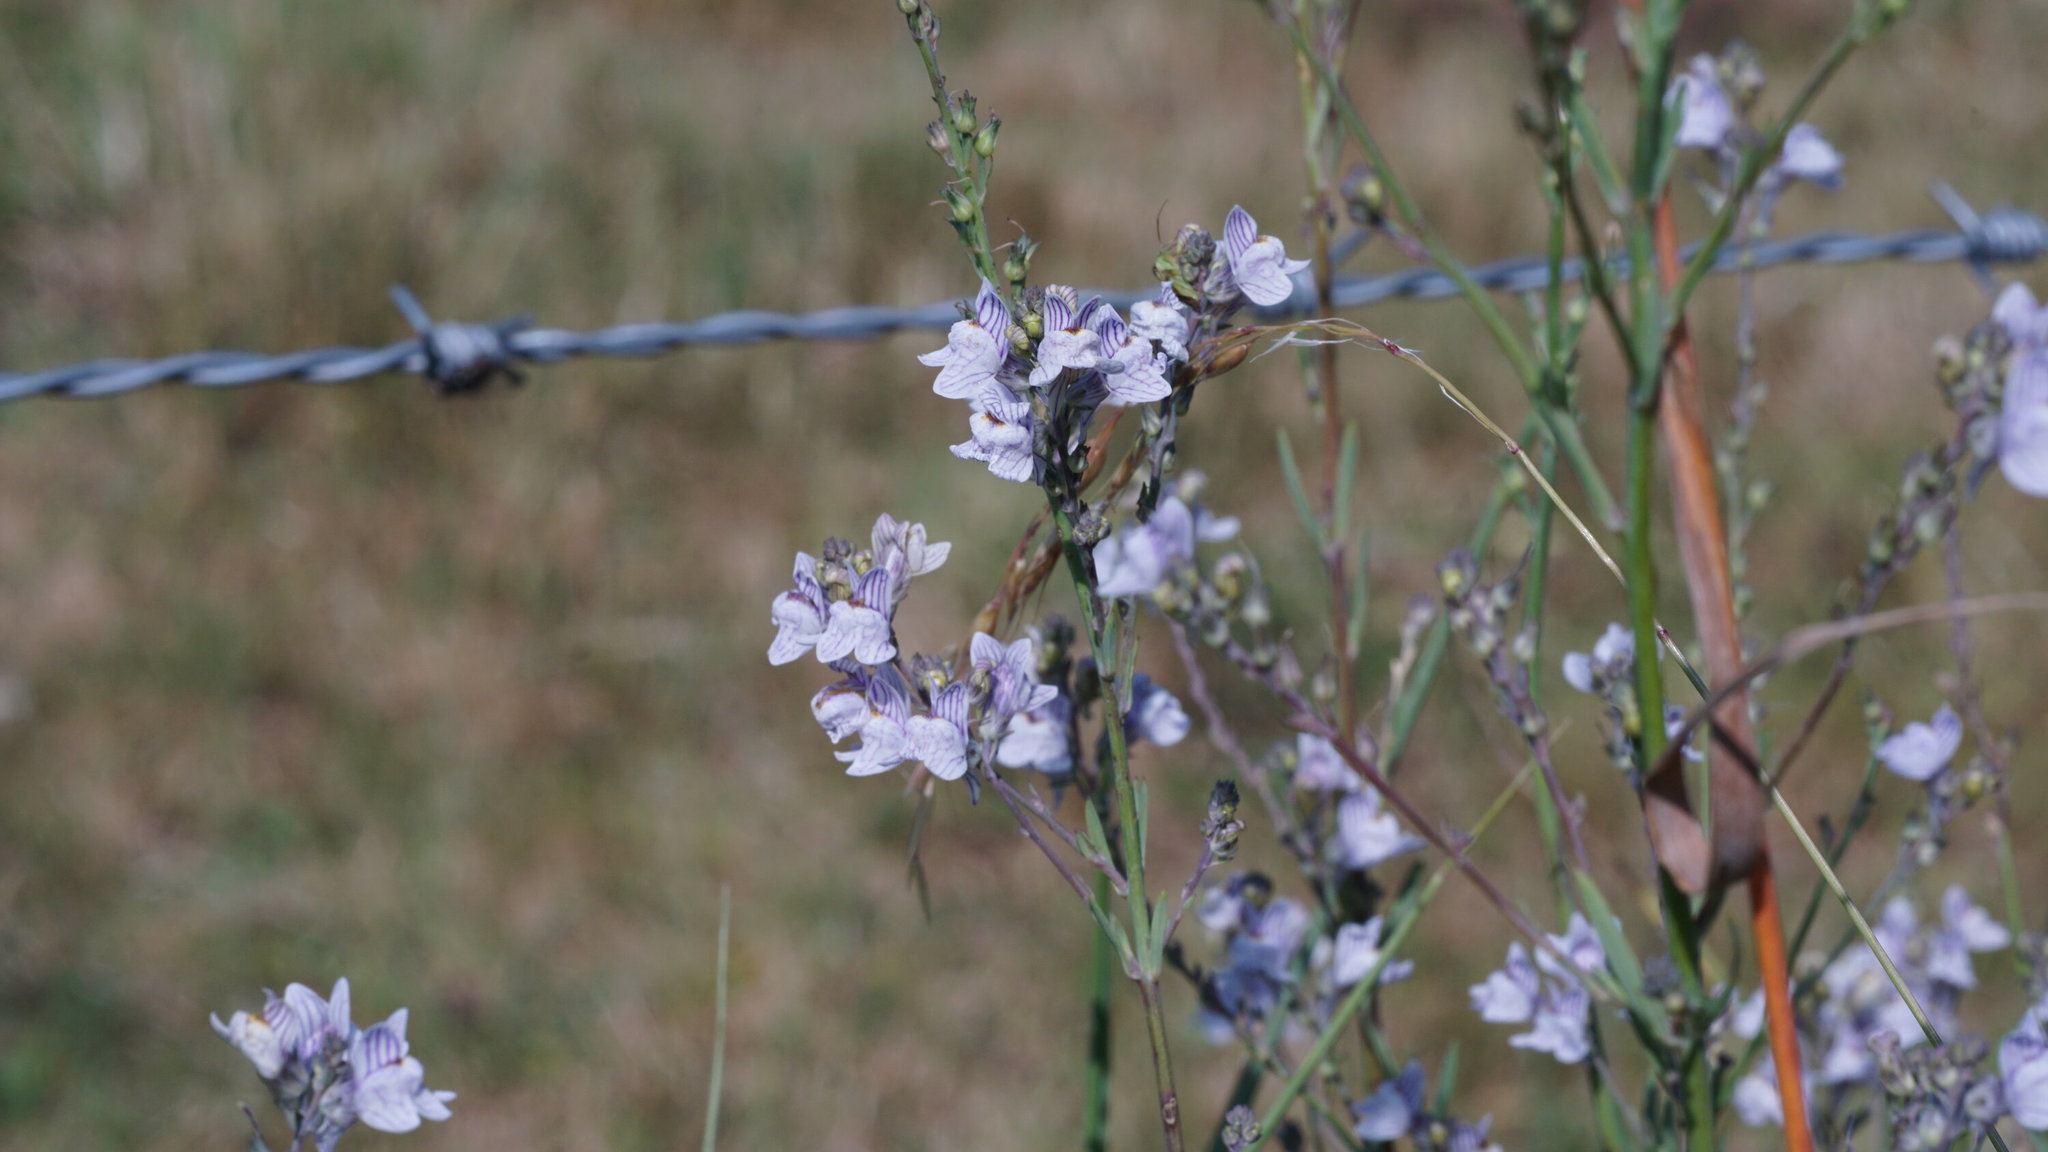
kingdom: Plantae
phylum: Tracheophyta
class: Magnoliopsida
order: Lamiales
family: Plantaginaceae
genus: Linaria
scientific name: Linaria repens
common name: Pale toadflax
